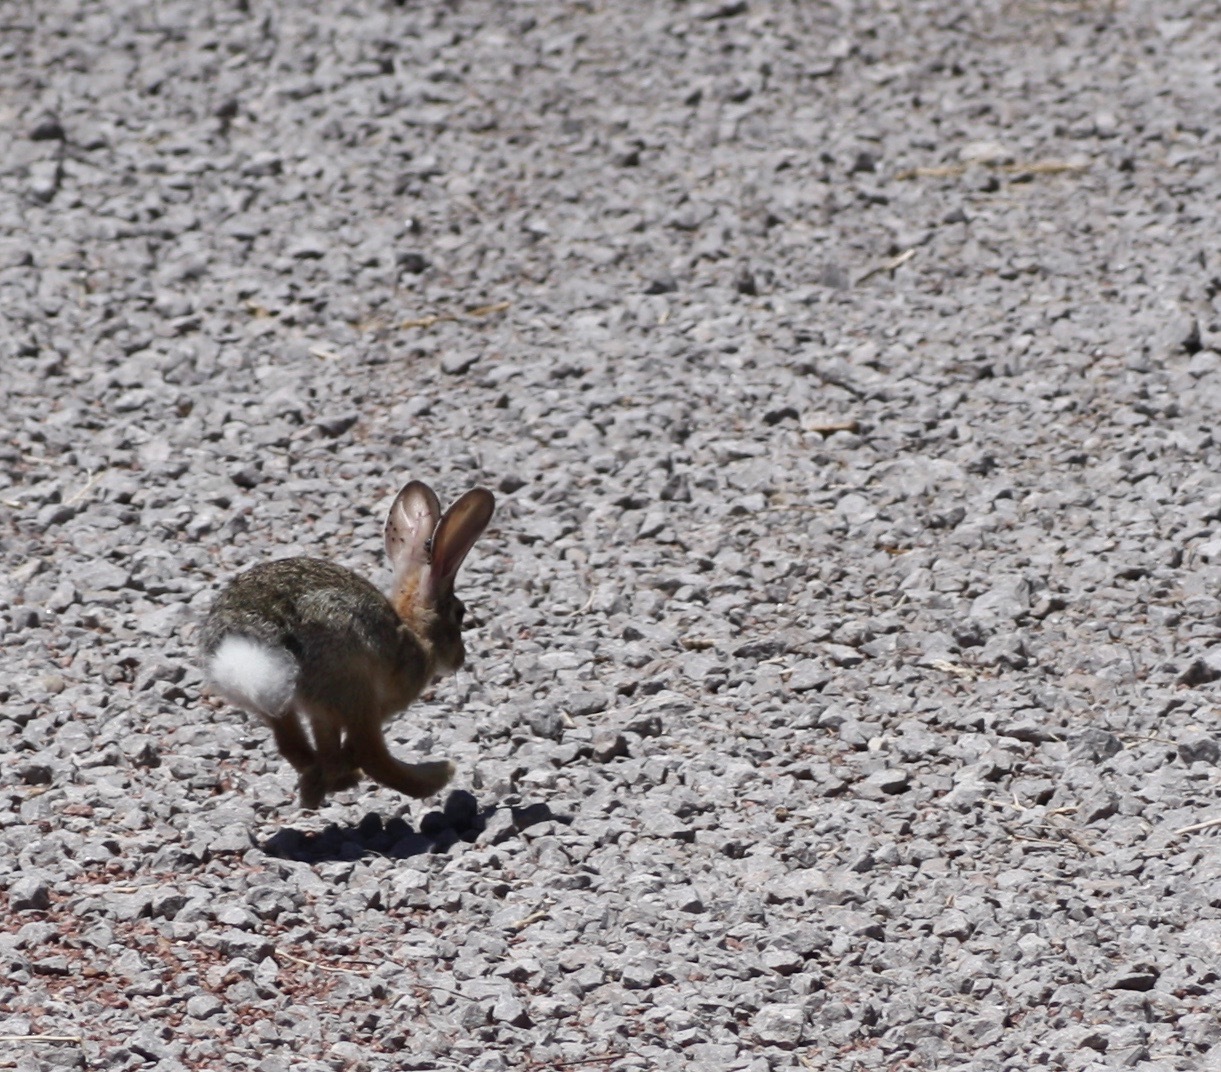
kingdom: Animalia
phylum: Chordata
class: Mammalia
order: Lagomorpha
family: Leporidae
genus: Sylvilagus
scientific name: Sylvilagus audubonii
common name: Desert cottontail
